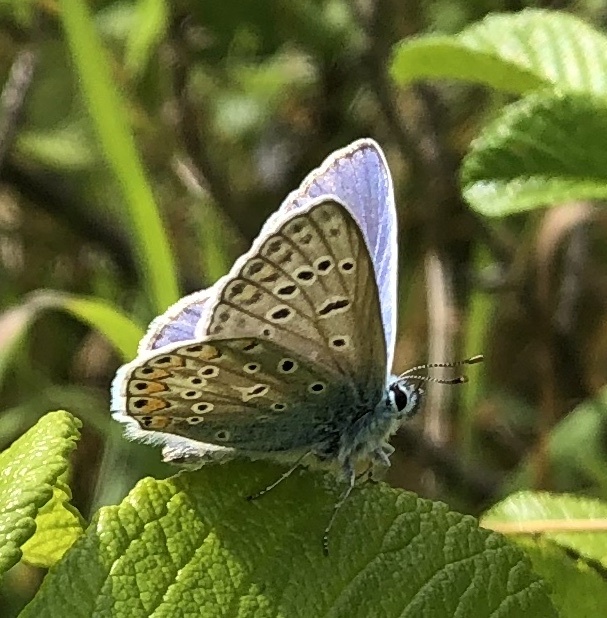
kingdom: Animalia
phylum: Arthropoda
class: Insecta
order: Lepidoptera
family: Lycaenidae
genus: Polyommatus
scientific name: Polyommatus icarus
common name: Common blue
